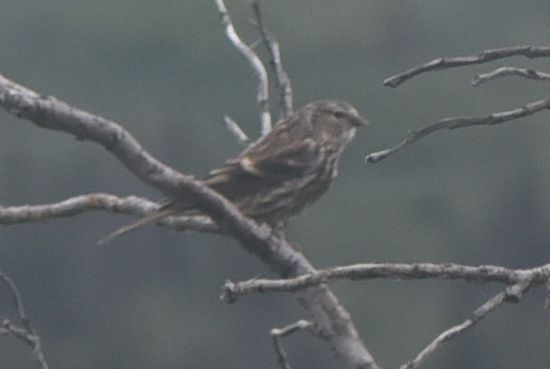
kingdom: Animalia
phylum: Chordata
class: Aves
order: Passeriformes
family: Fringillidae
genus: Acanthis
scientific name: Acanthis flammea
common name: Common redpoll
